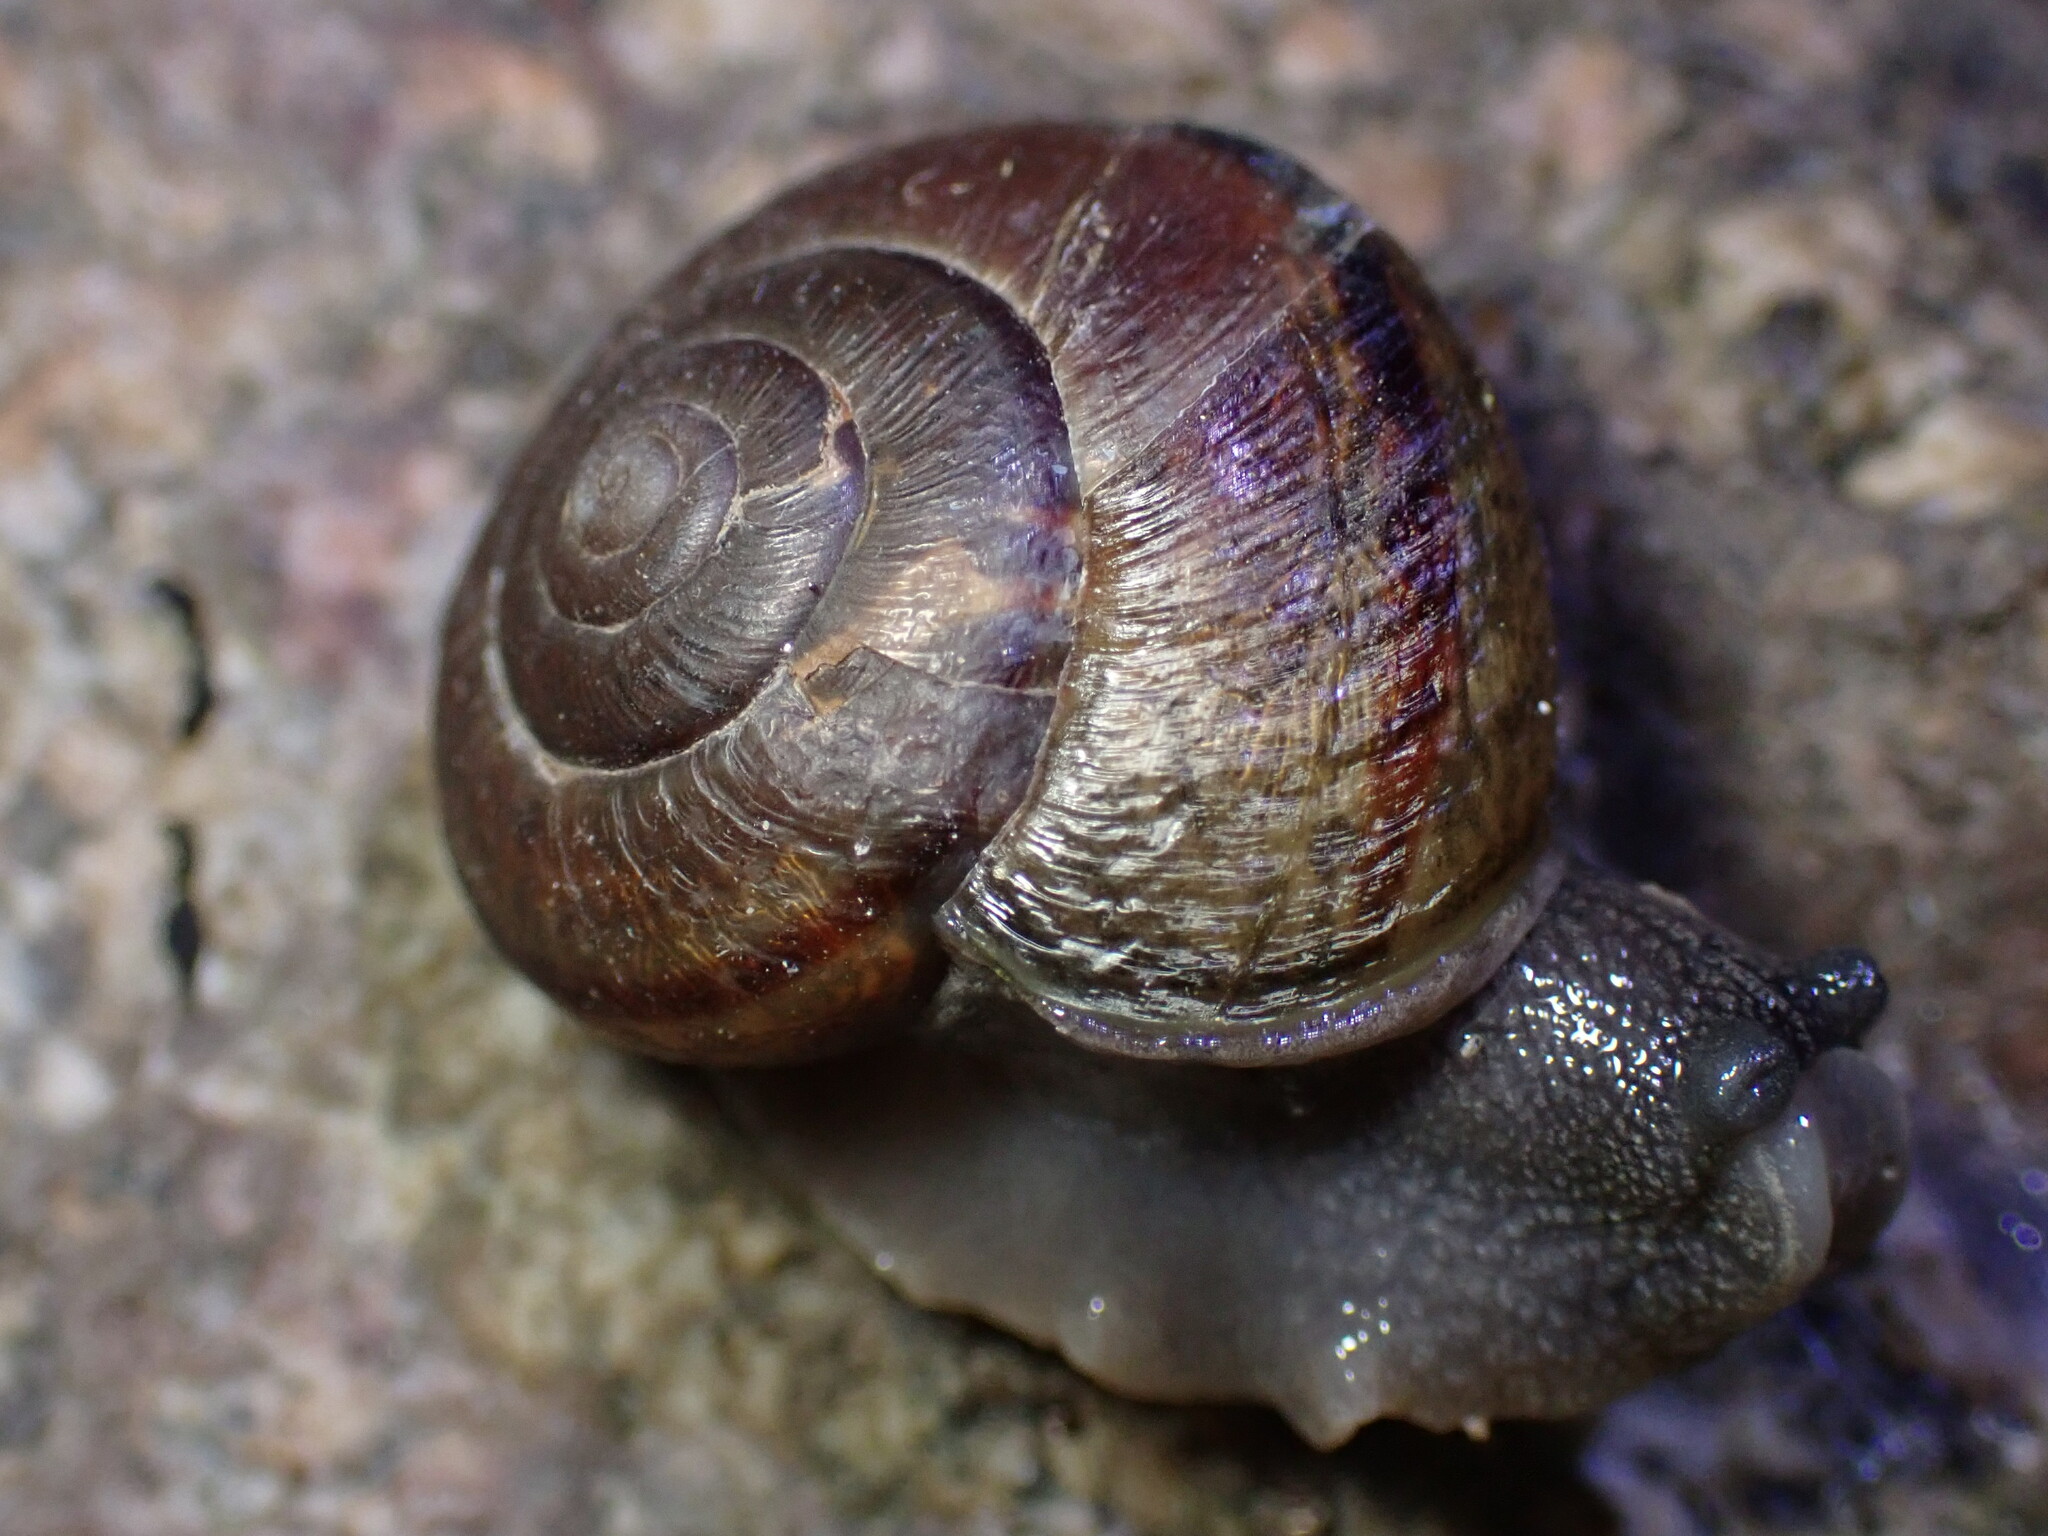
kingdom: Animalia
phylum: Mollusca
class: Gastropoda
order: Stylommatophora
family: Xanthonychidae
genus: Helminthoglypta
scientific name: Helminthoglypta tudiculata
